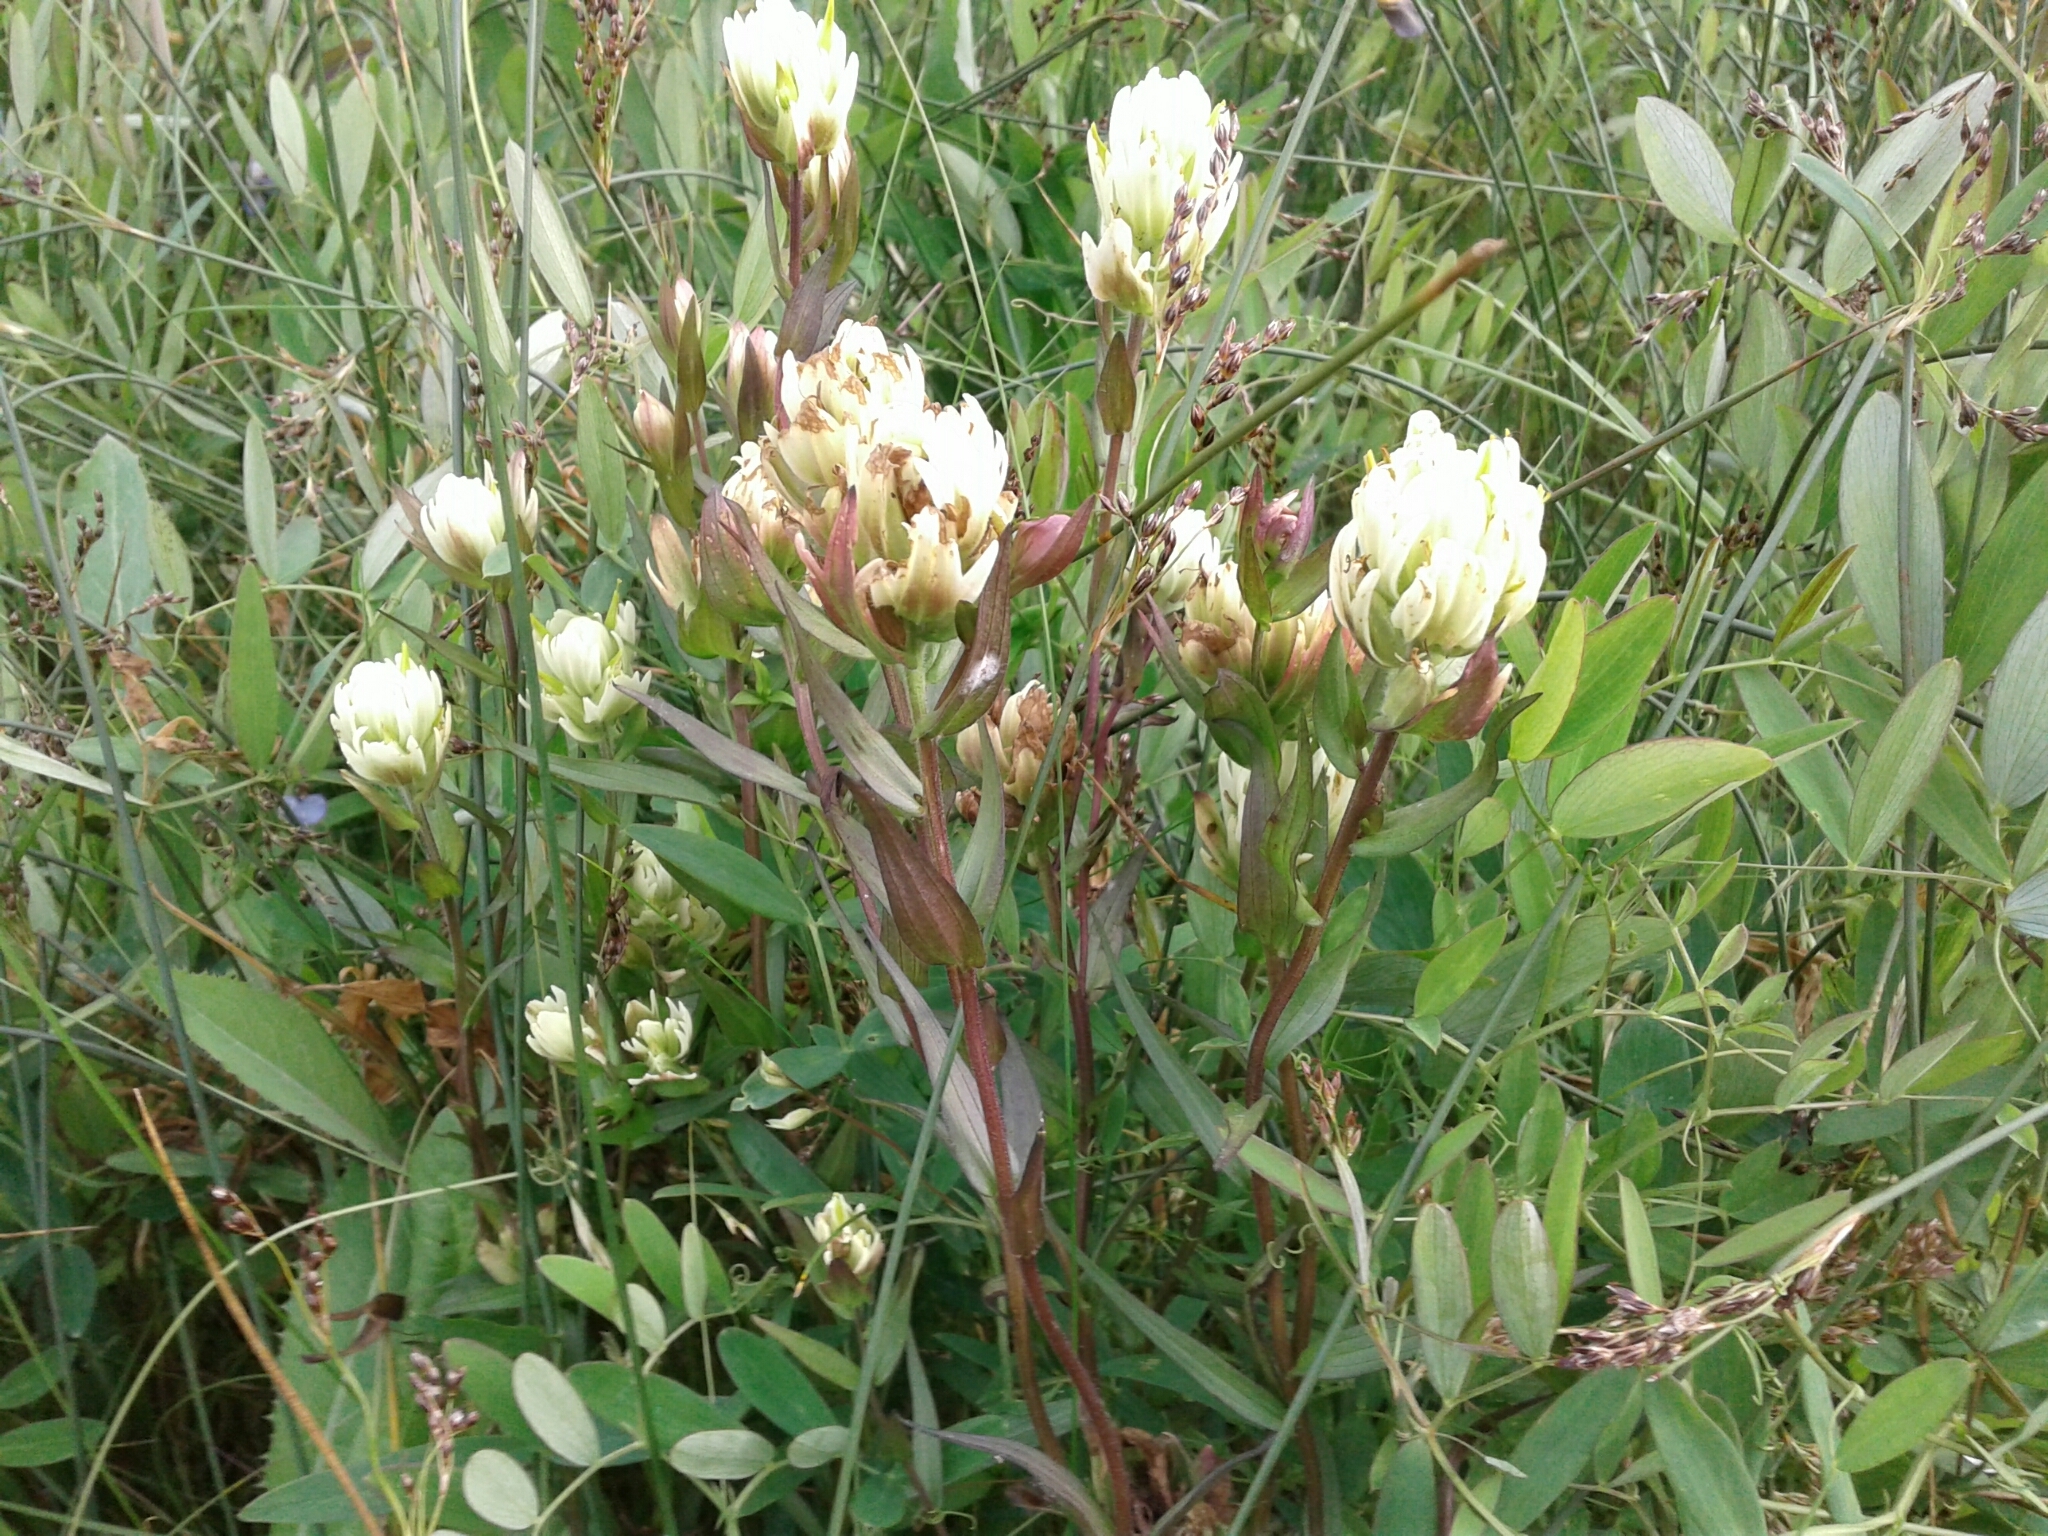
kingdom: Plantae
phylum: Tracheophyta
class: Magnoliopsida
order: Lamiales
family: Orobanchaceae
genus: Castilleja
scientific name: Castilleja septentrionalis
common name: Northeastern paintbrush
